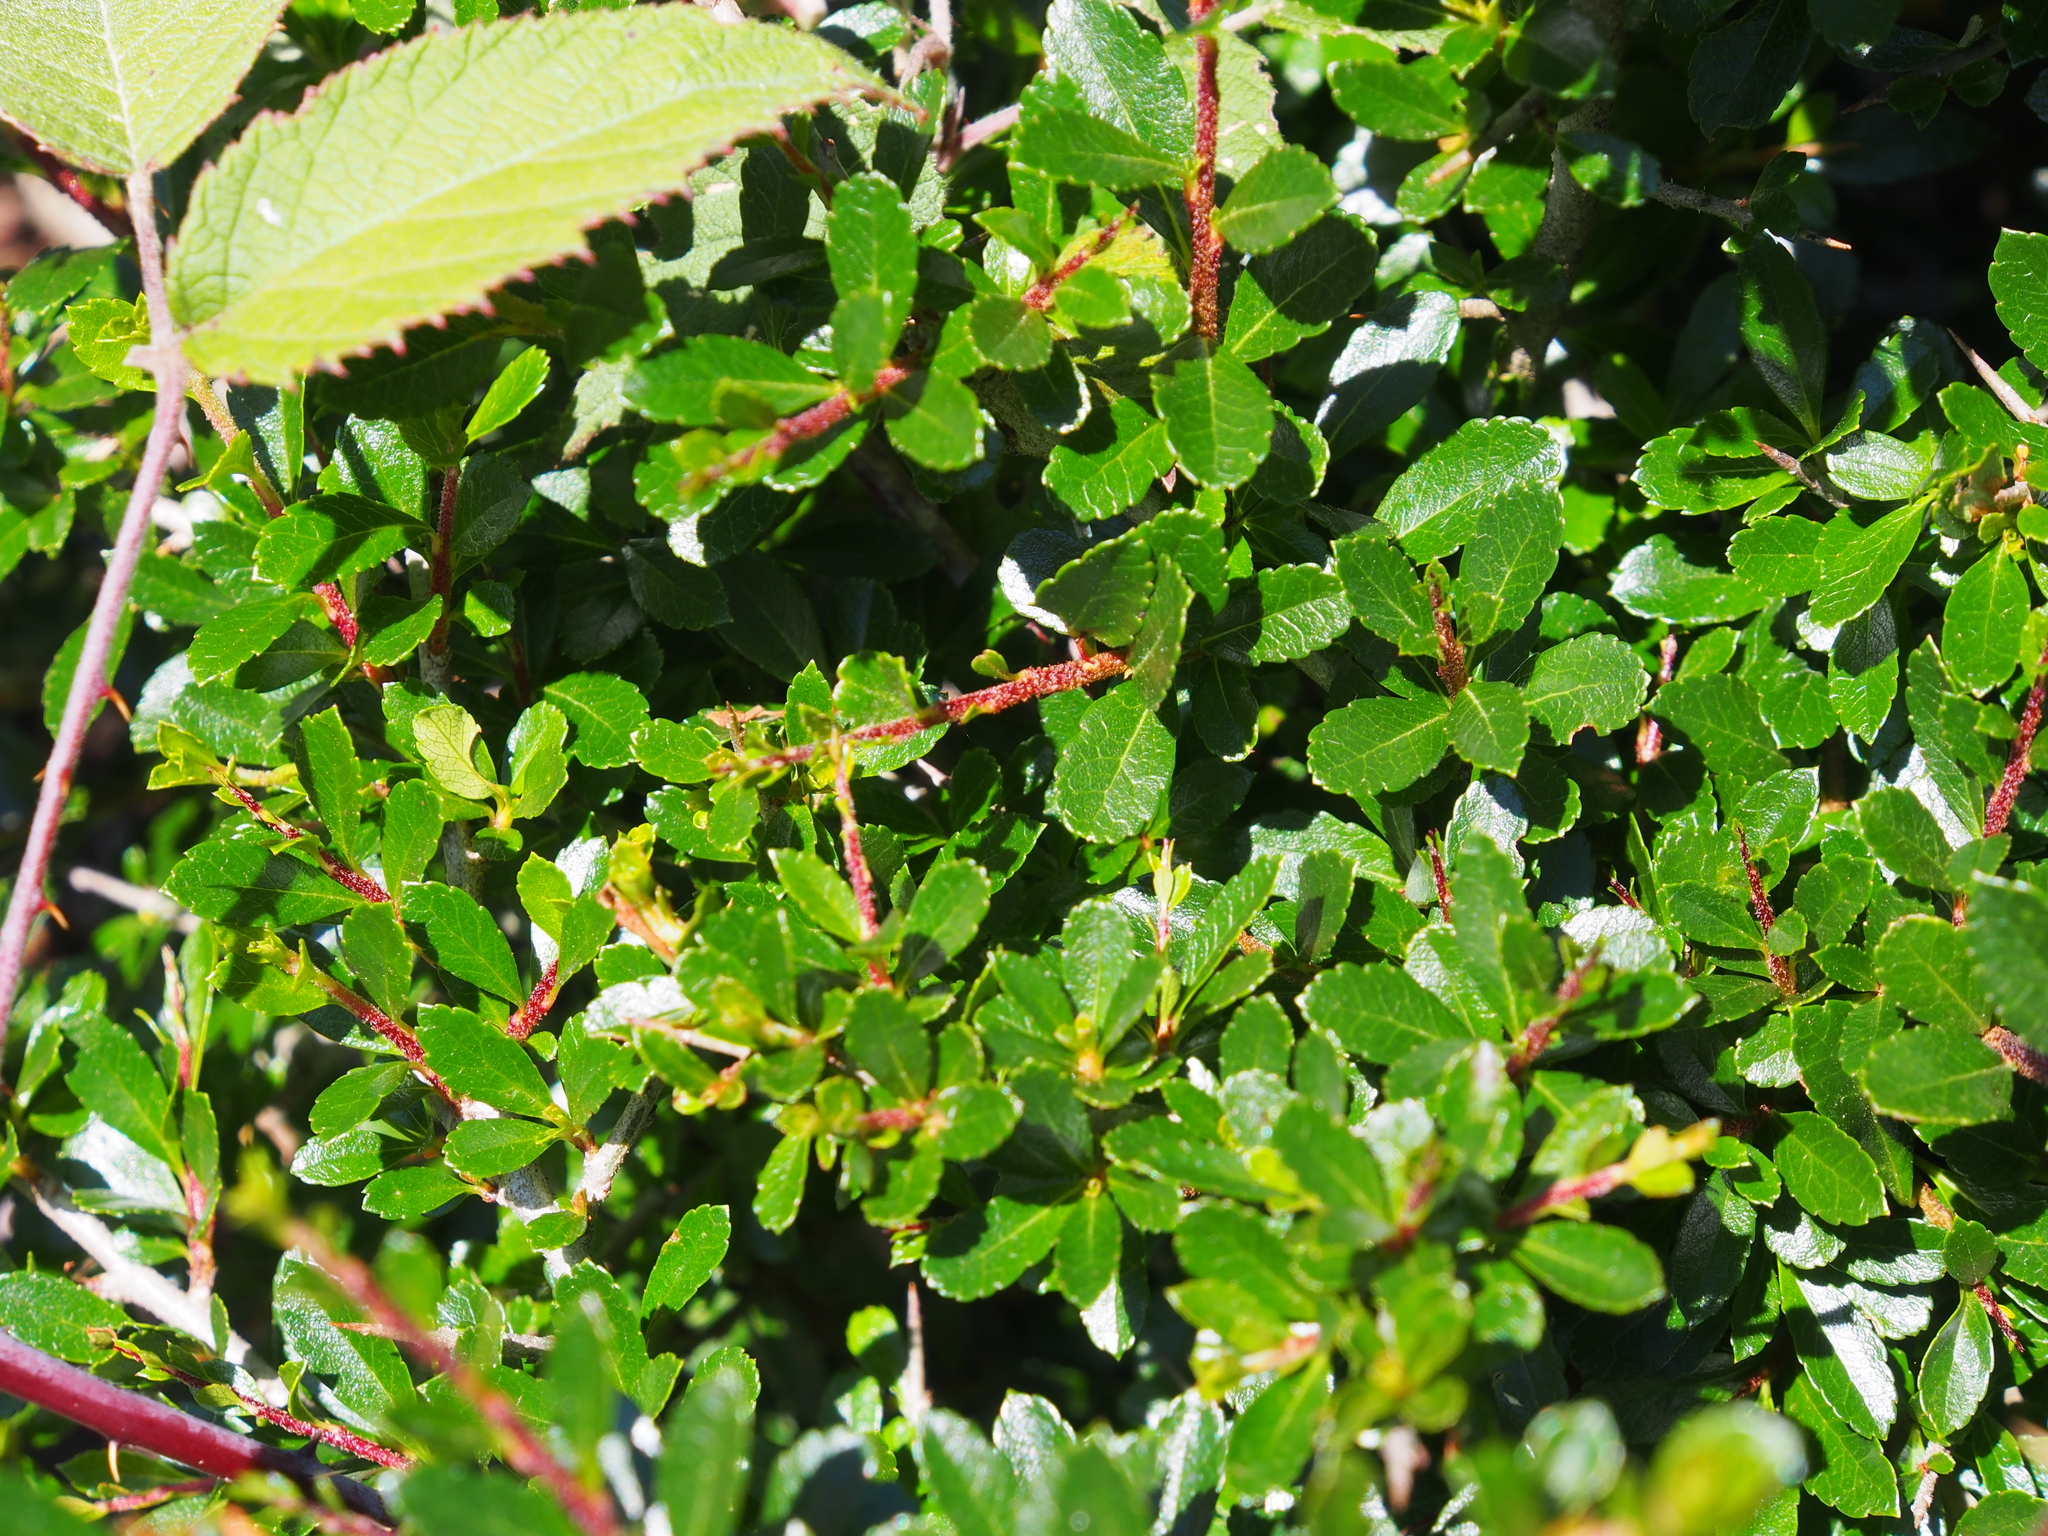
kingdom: Plantae
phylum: Tracheophyta
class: Magnoliopsida
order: Rosales
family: Rosaceae
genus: Hesperomeles
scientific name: Hesperomeles obtusifolia
